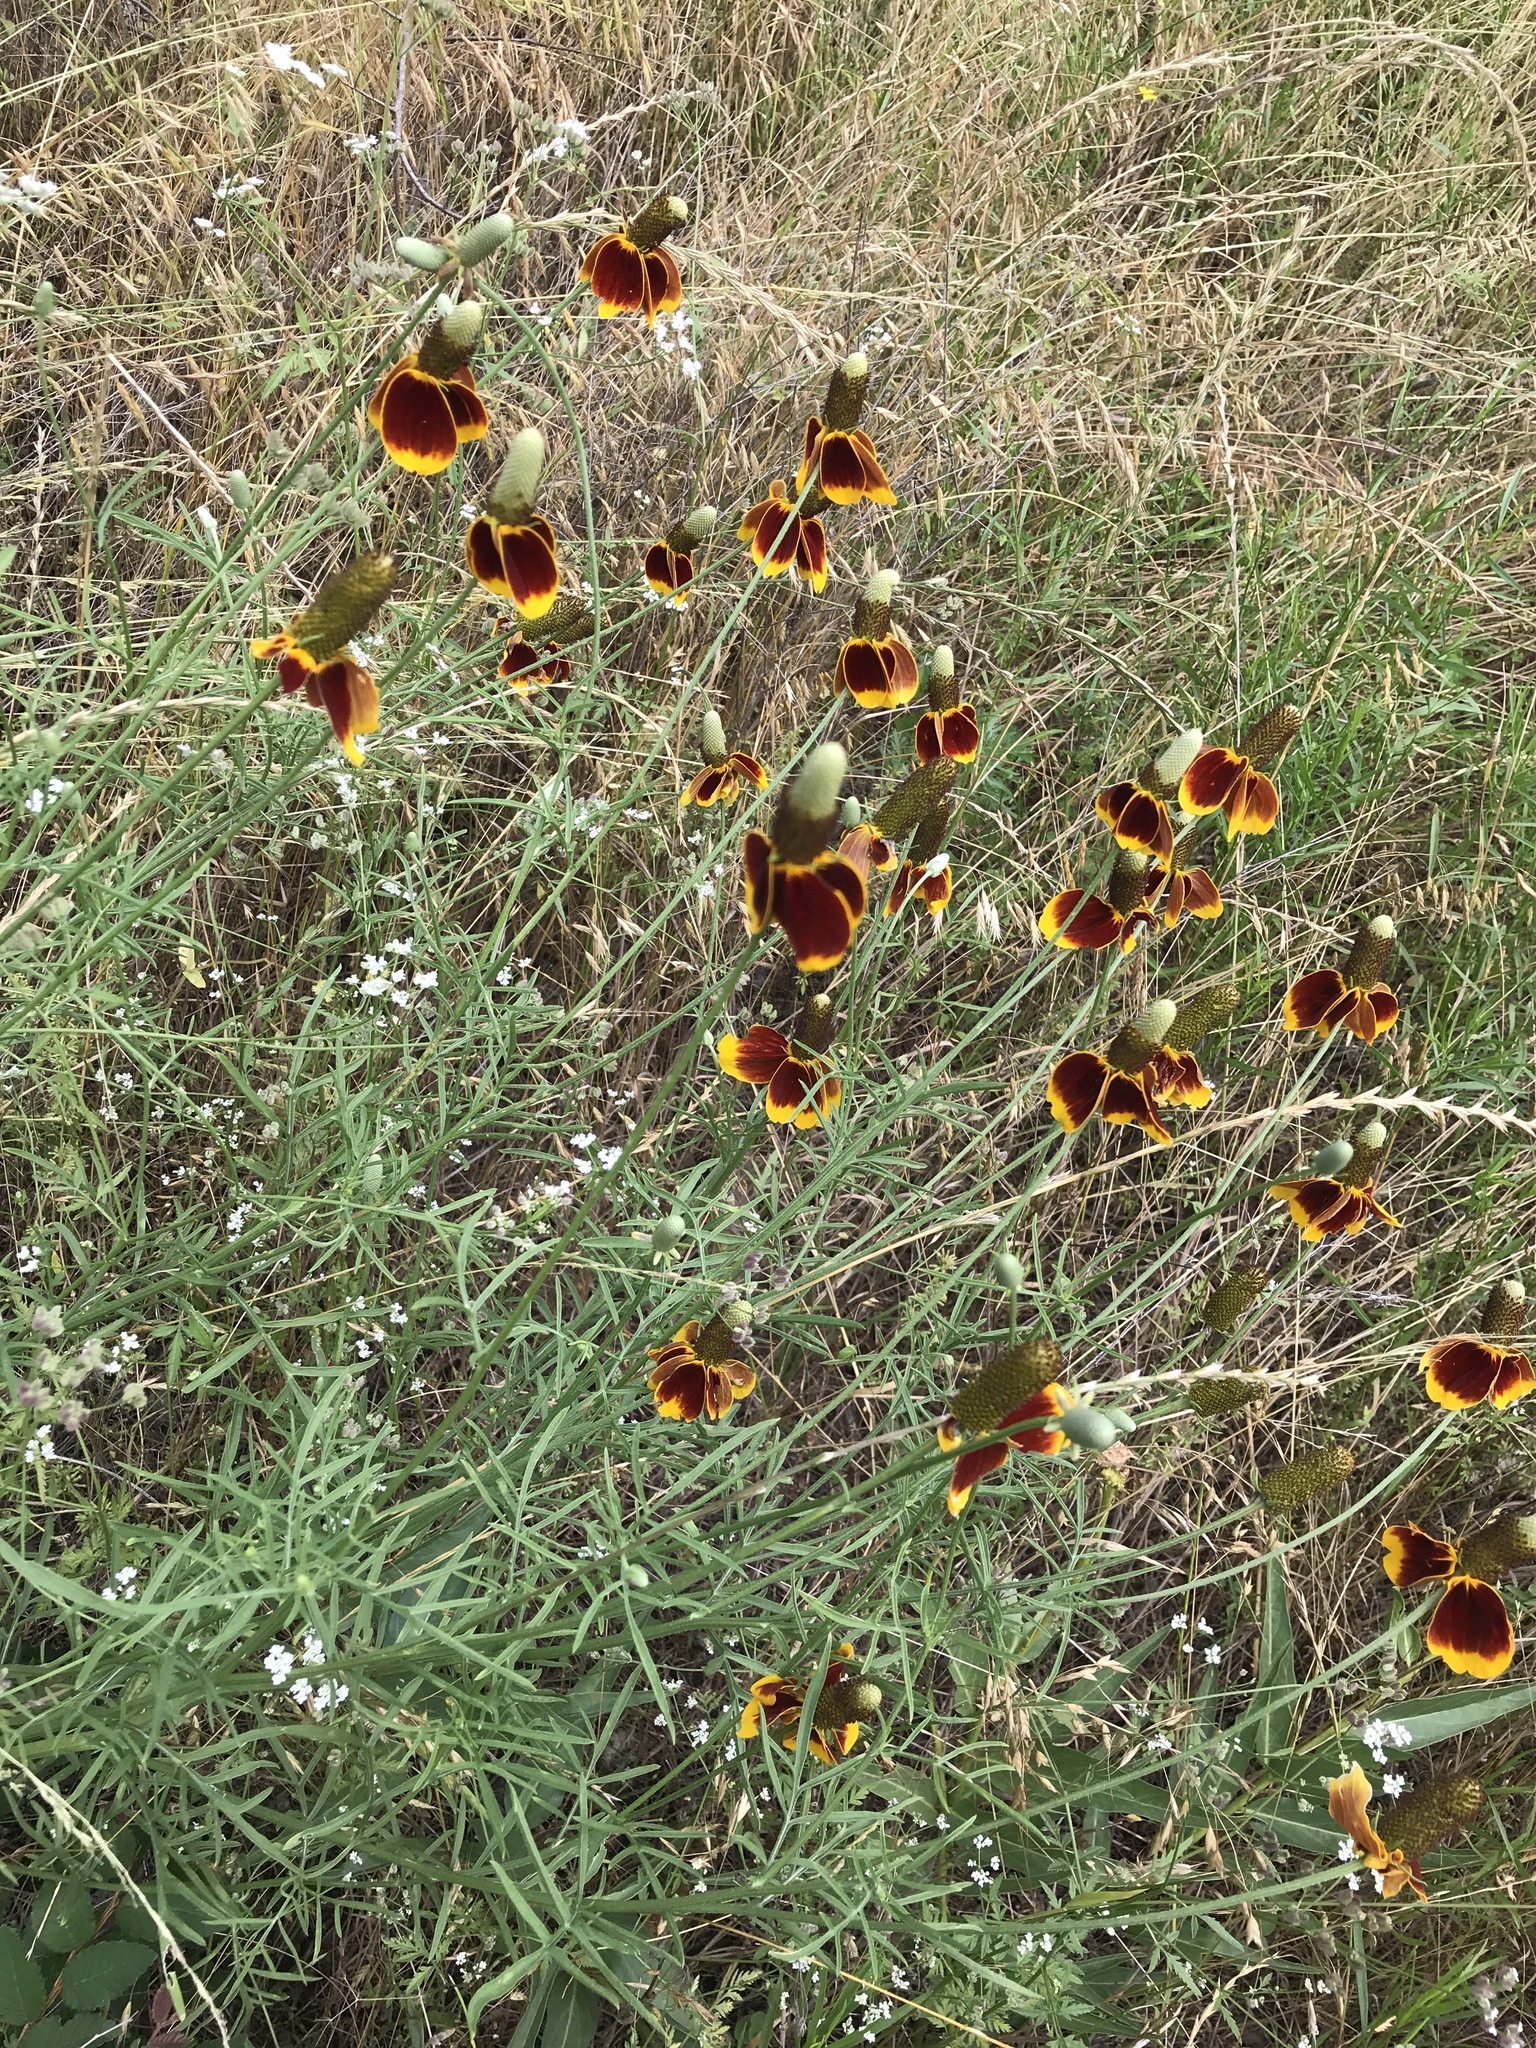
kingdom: Plantae
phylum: Tracheophyta
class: Magnoliopsida
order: Asterales
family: Asteraceae
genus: Ratibida
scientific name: Ratibida columnifera
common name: Prairie coneflower
